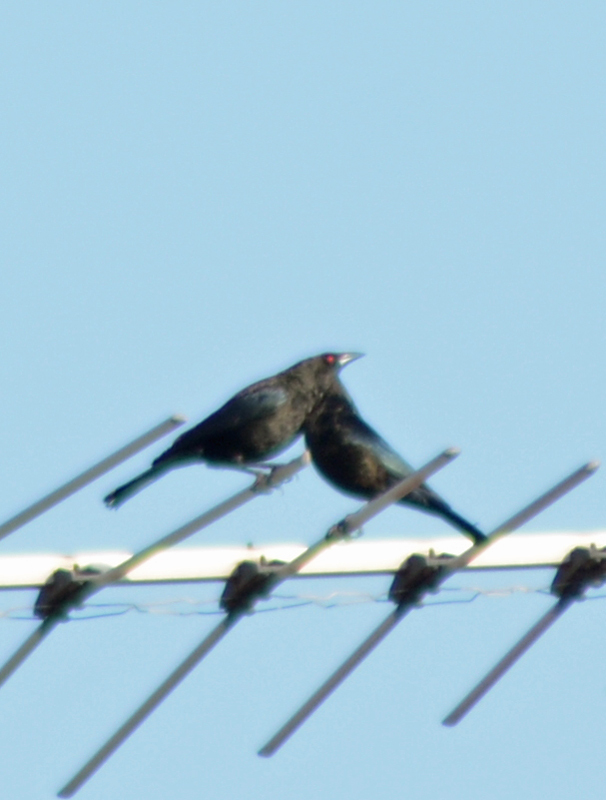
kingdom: Animalia
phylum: Chordata
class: Aves
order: Passeriformes
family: Icteridae
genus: Molothrus
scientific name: Molothrus aeneus
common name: Bronzed cowbird
